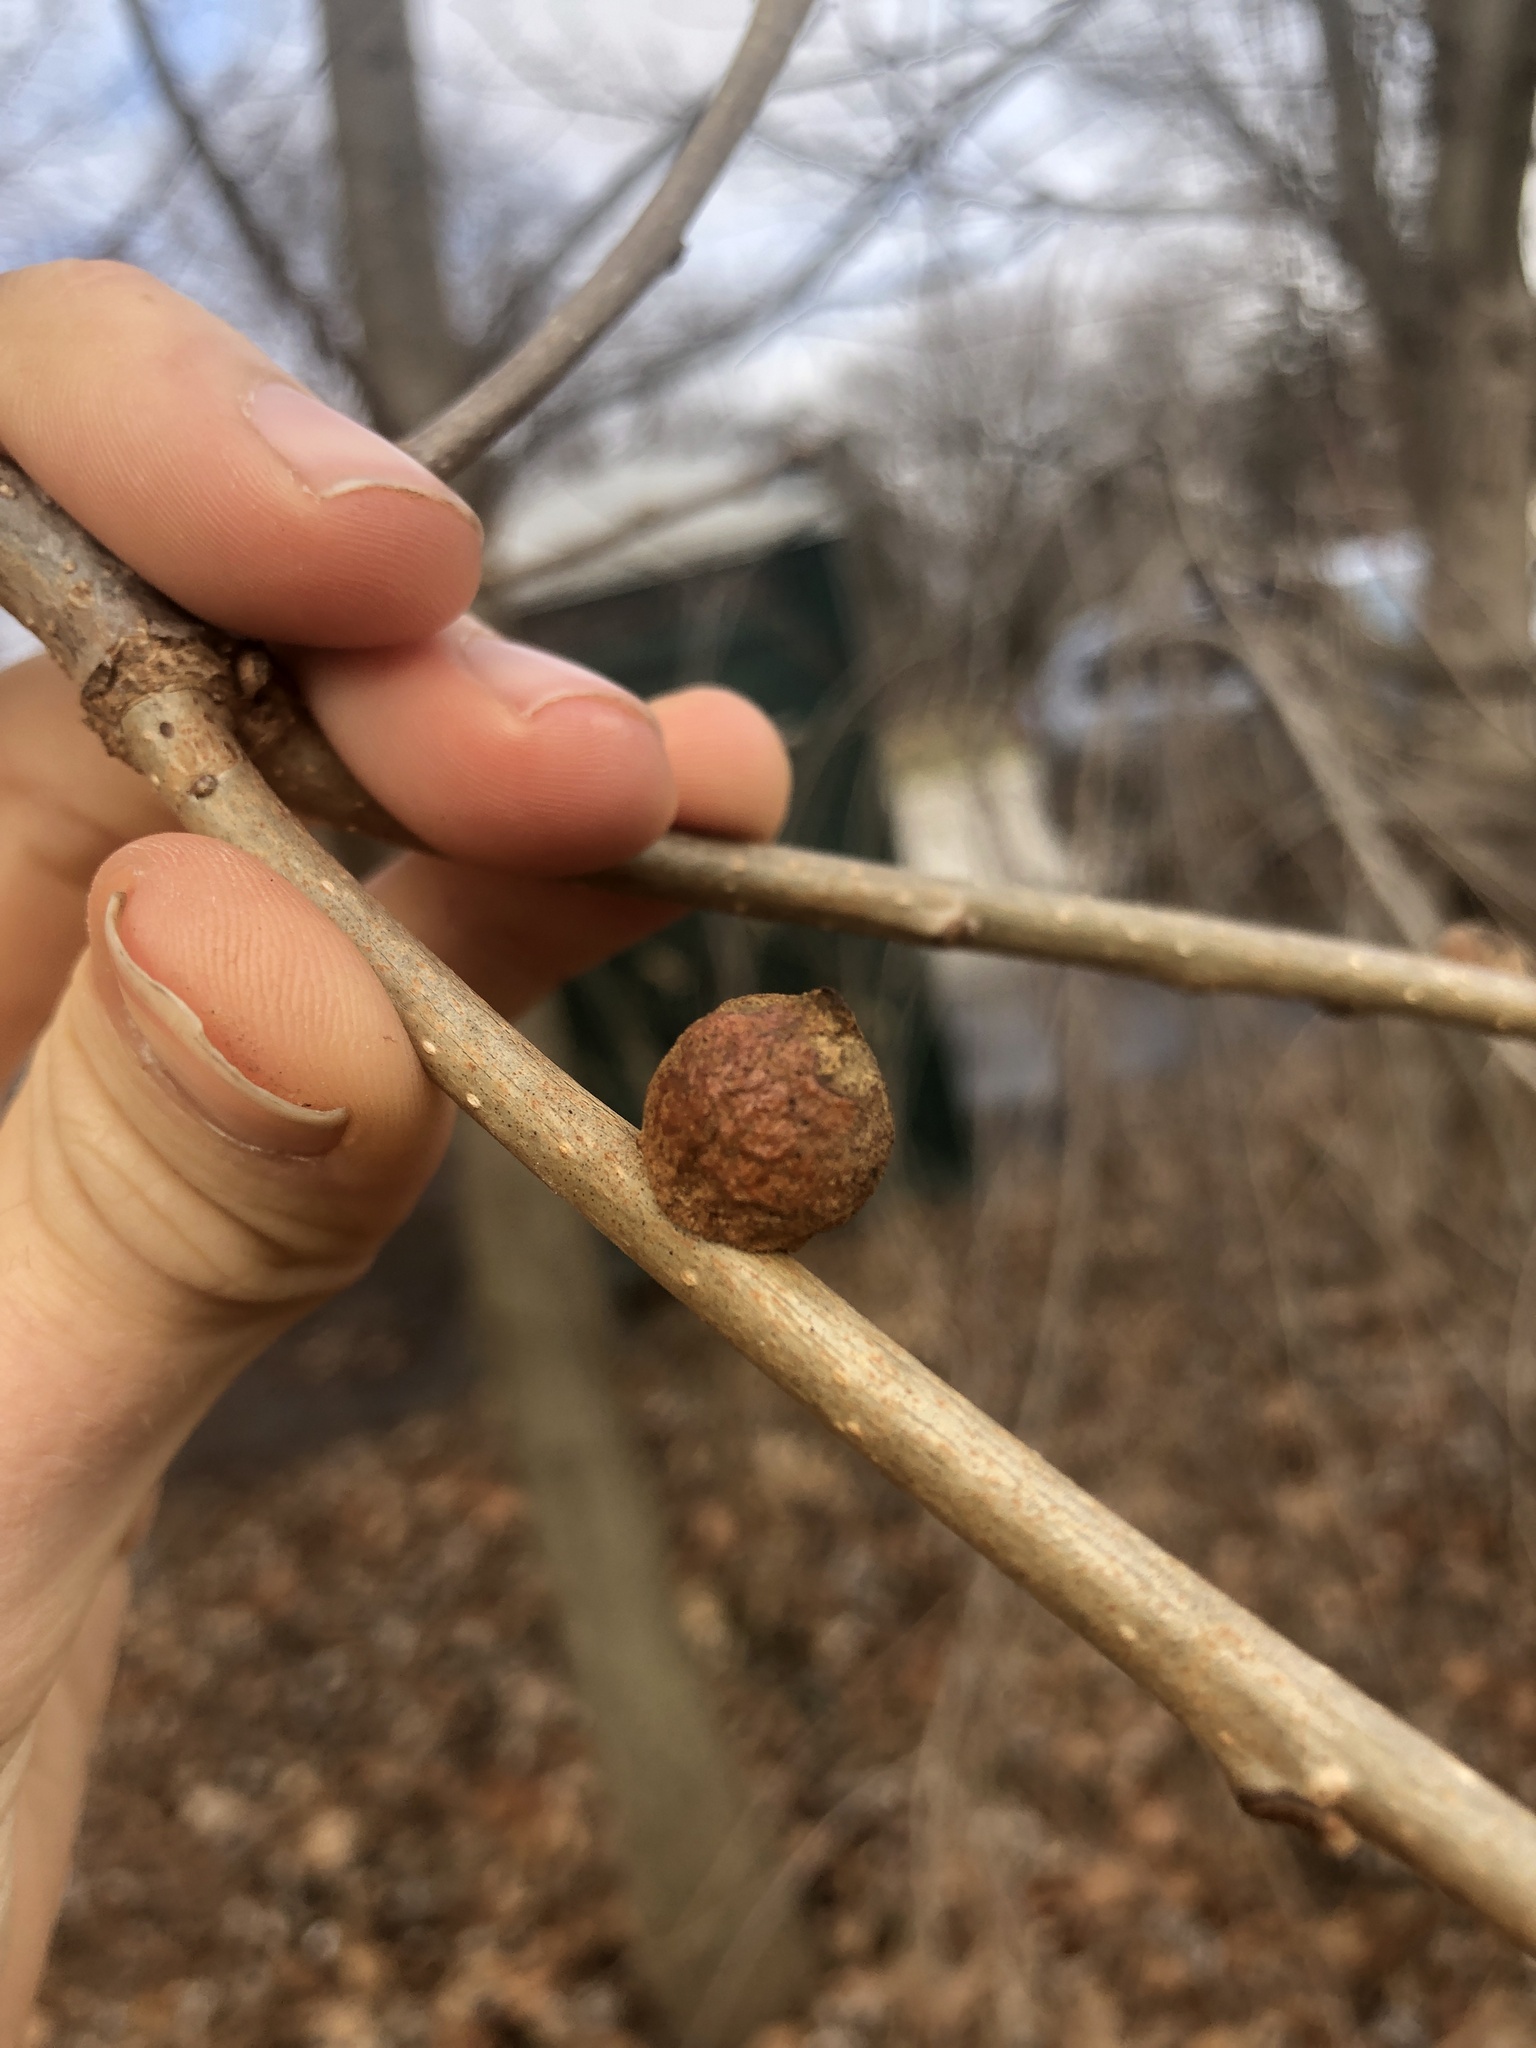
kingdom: Animalia
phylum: Arthropoda
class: Insecta
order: Hymenoptera
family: Cynipidae
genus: Disholcaspis
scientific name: Disholcaspis
